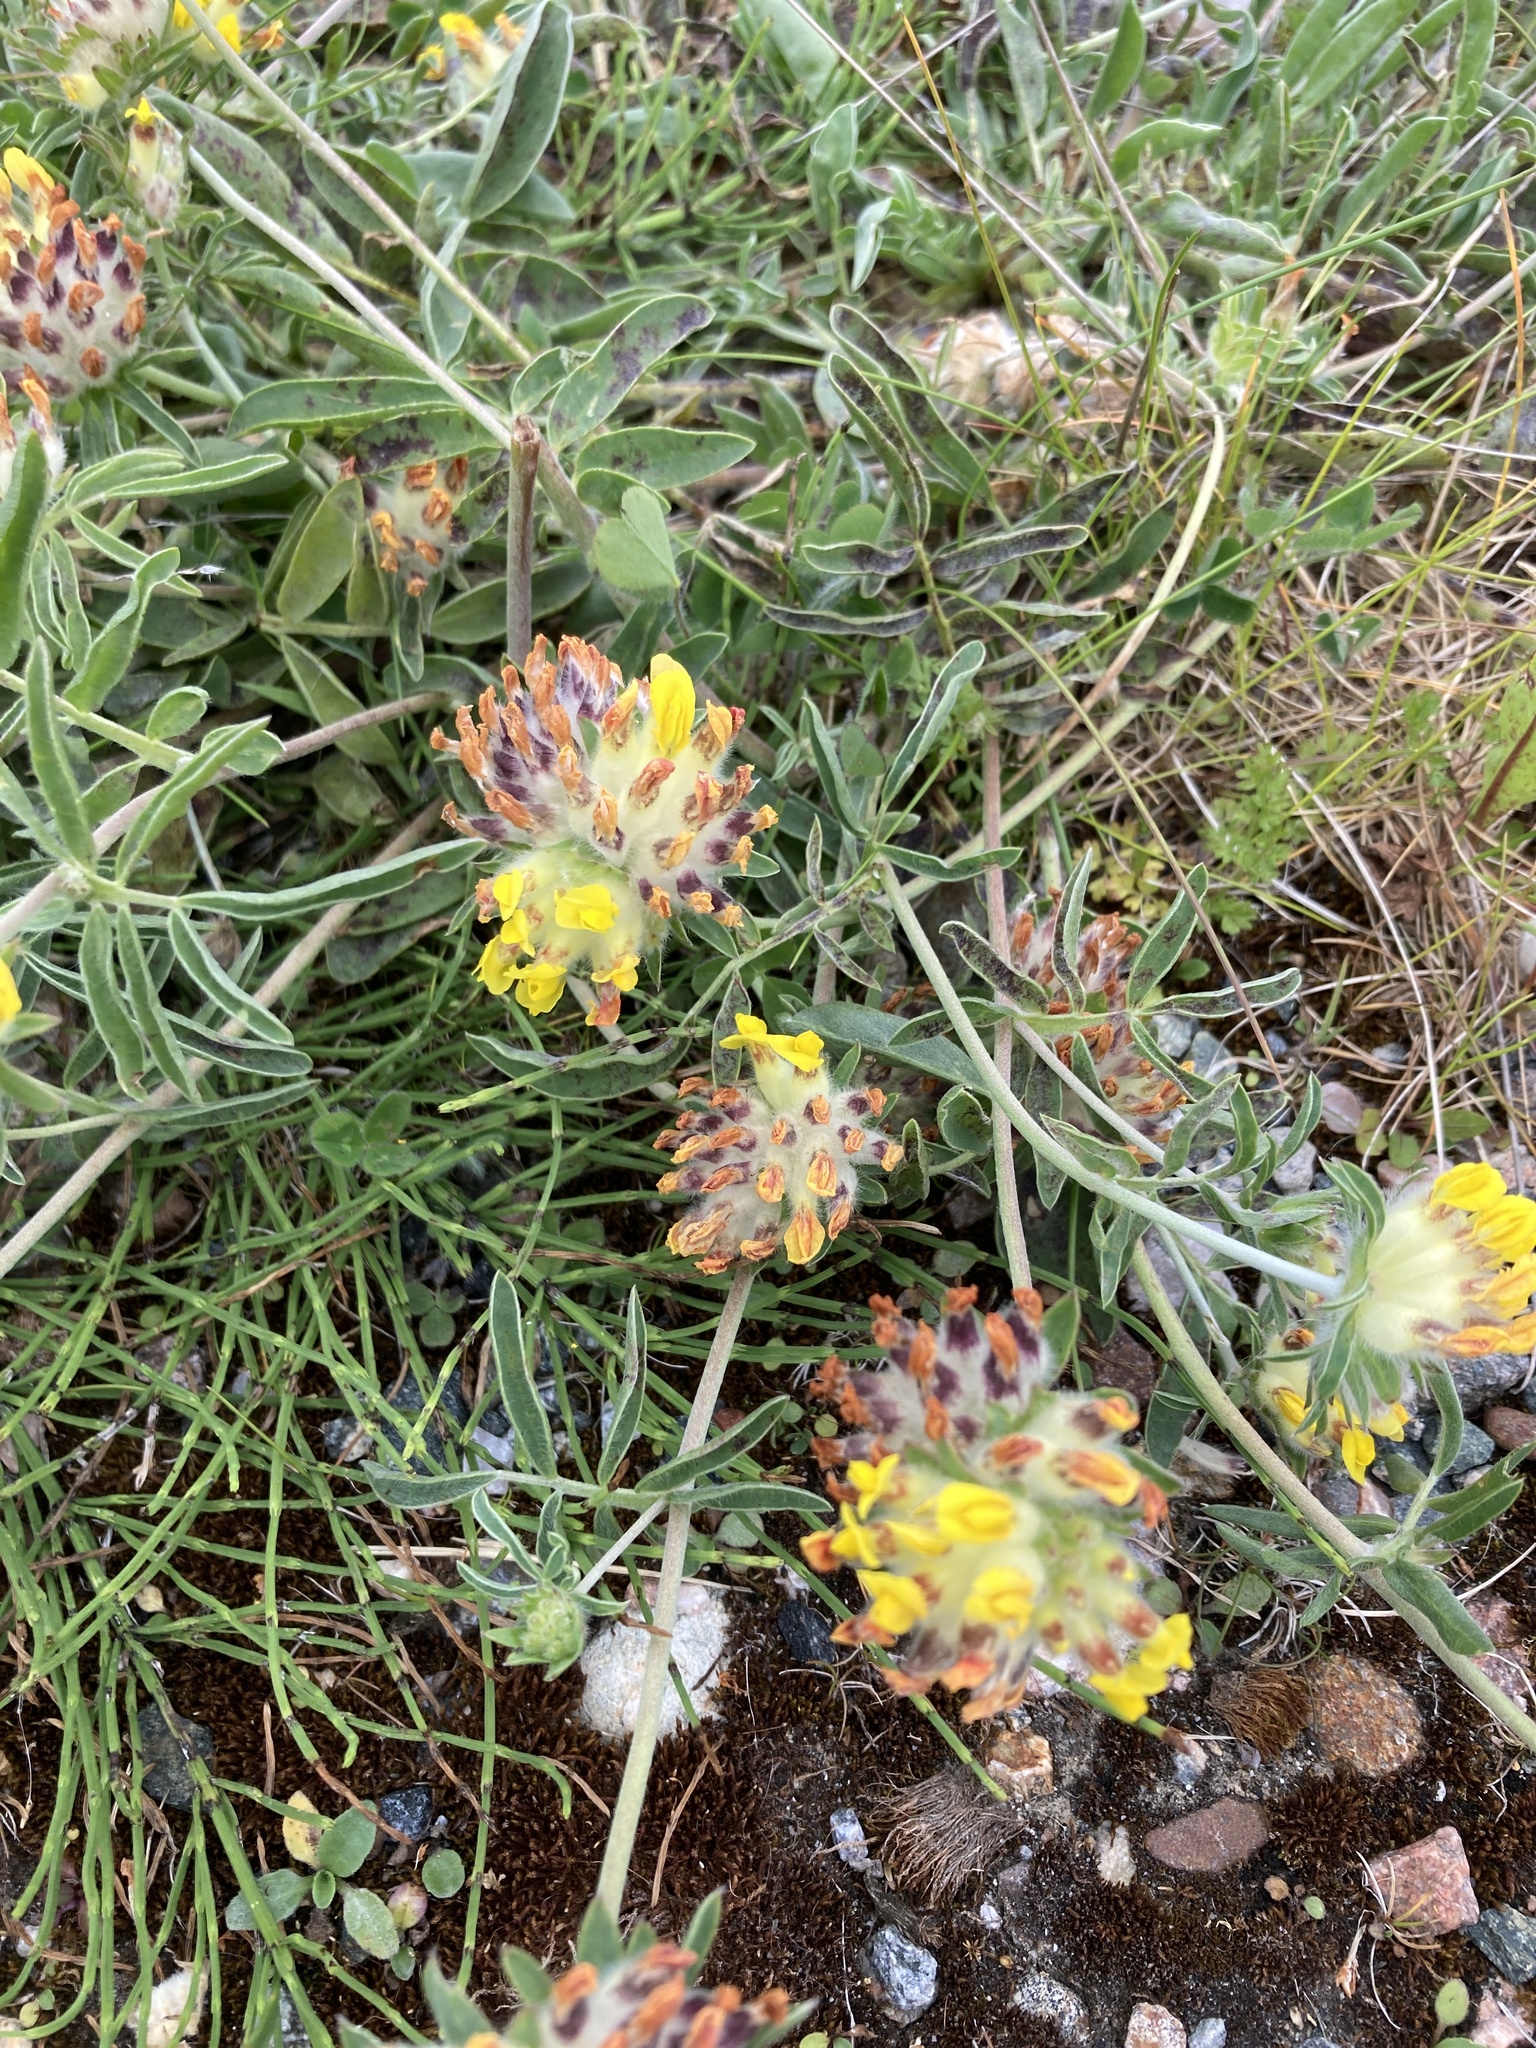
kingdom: Plantae
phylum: Tracheophyta
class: Magnoliopsida
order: Fabales
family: Fabaceae
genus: Anthyllis
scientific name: Anthyllis vulneraria
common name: Kidney vetch
